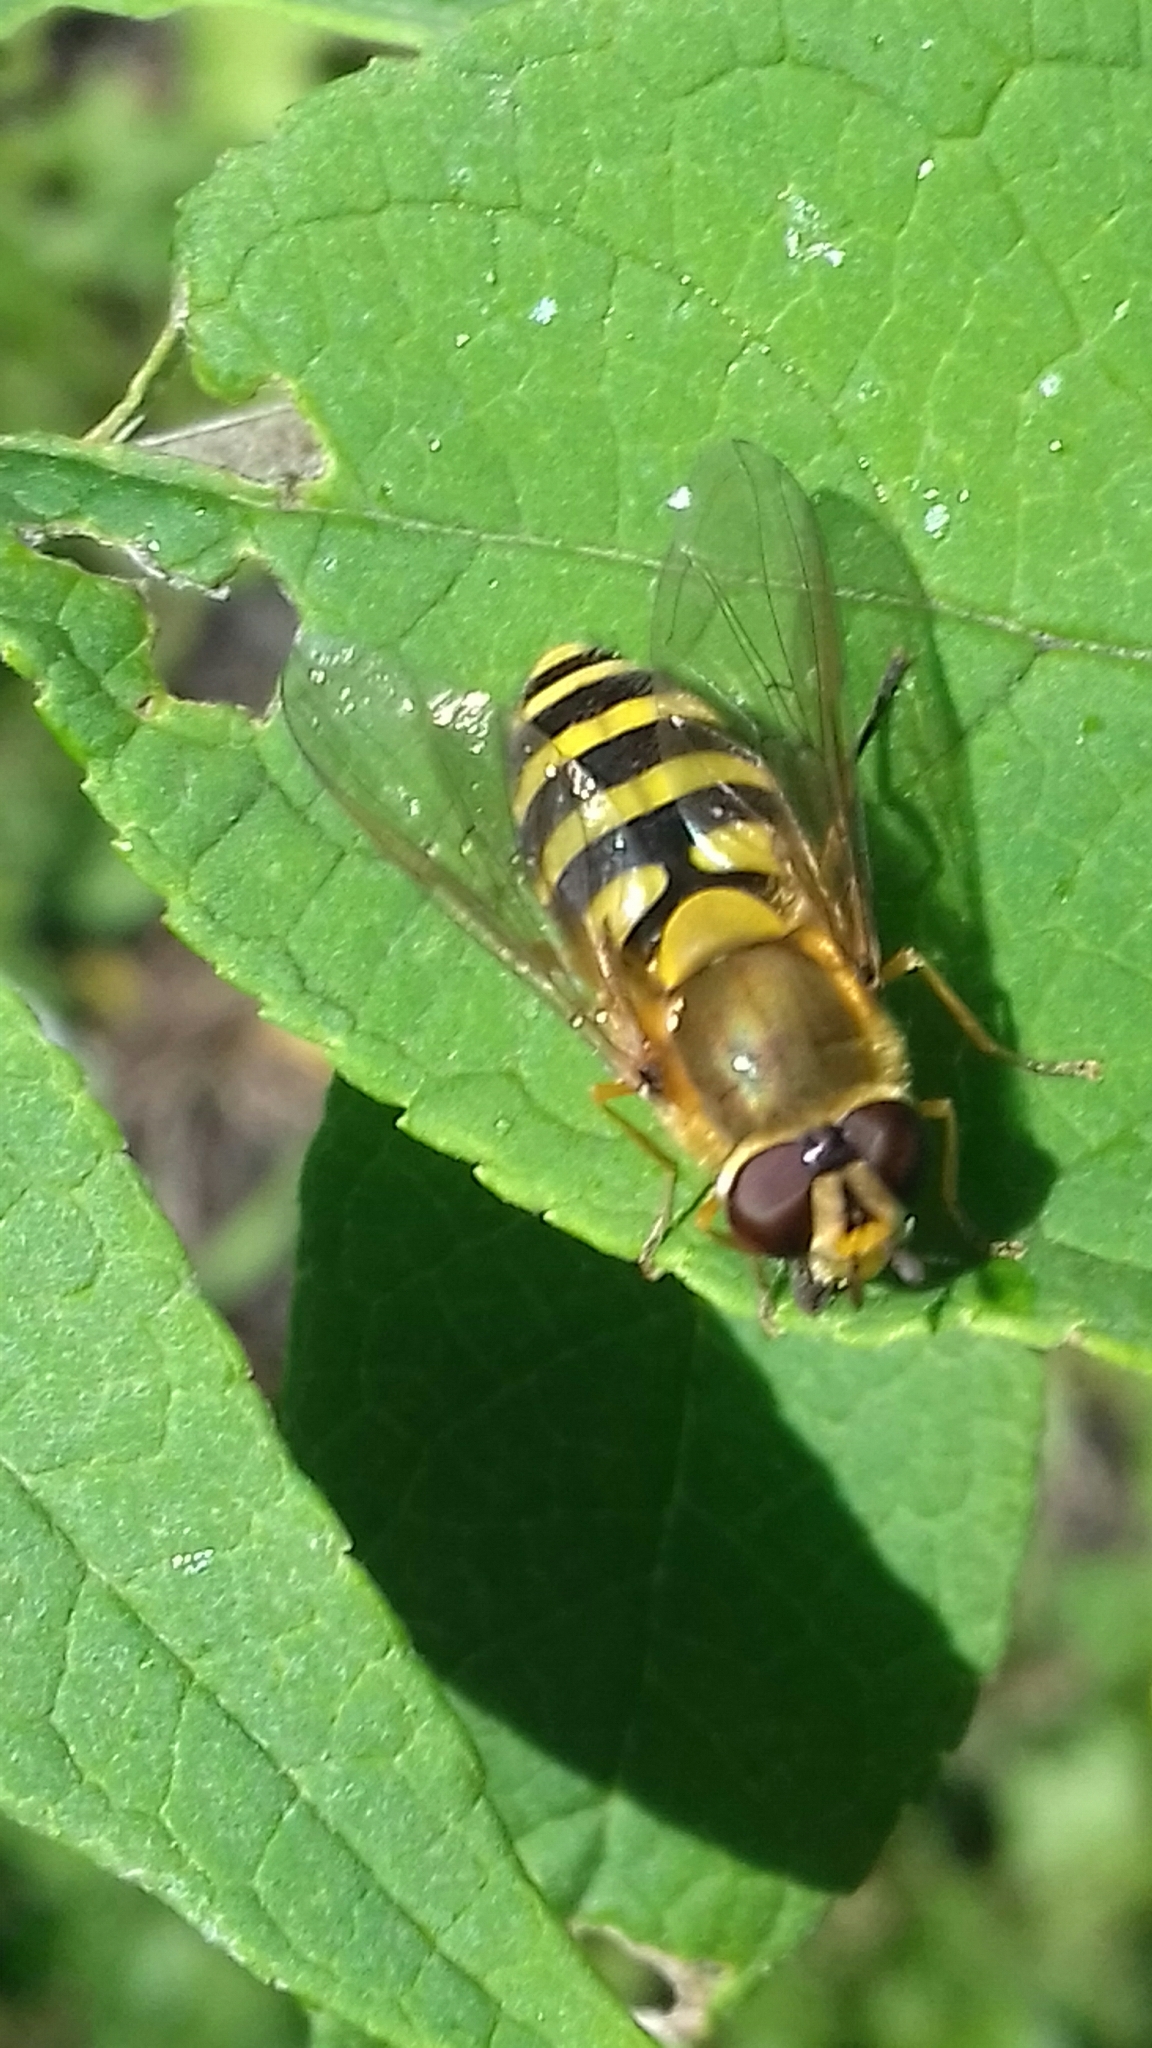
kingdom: Animalia
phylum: Arthropoda
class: Insecta
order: Diptera
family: Syrphidae
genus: Syrphus
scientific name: Syrphus
